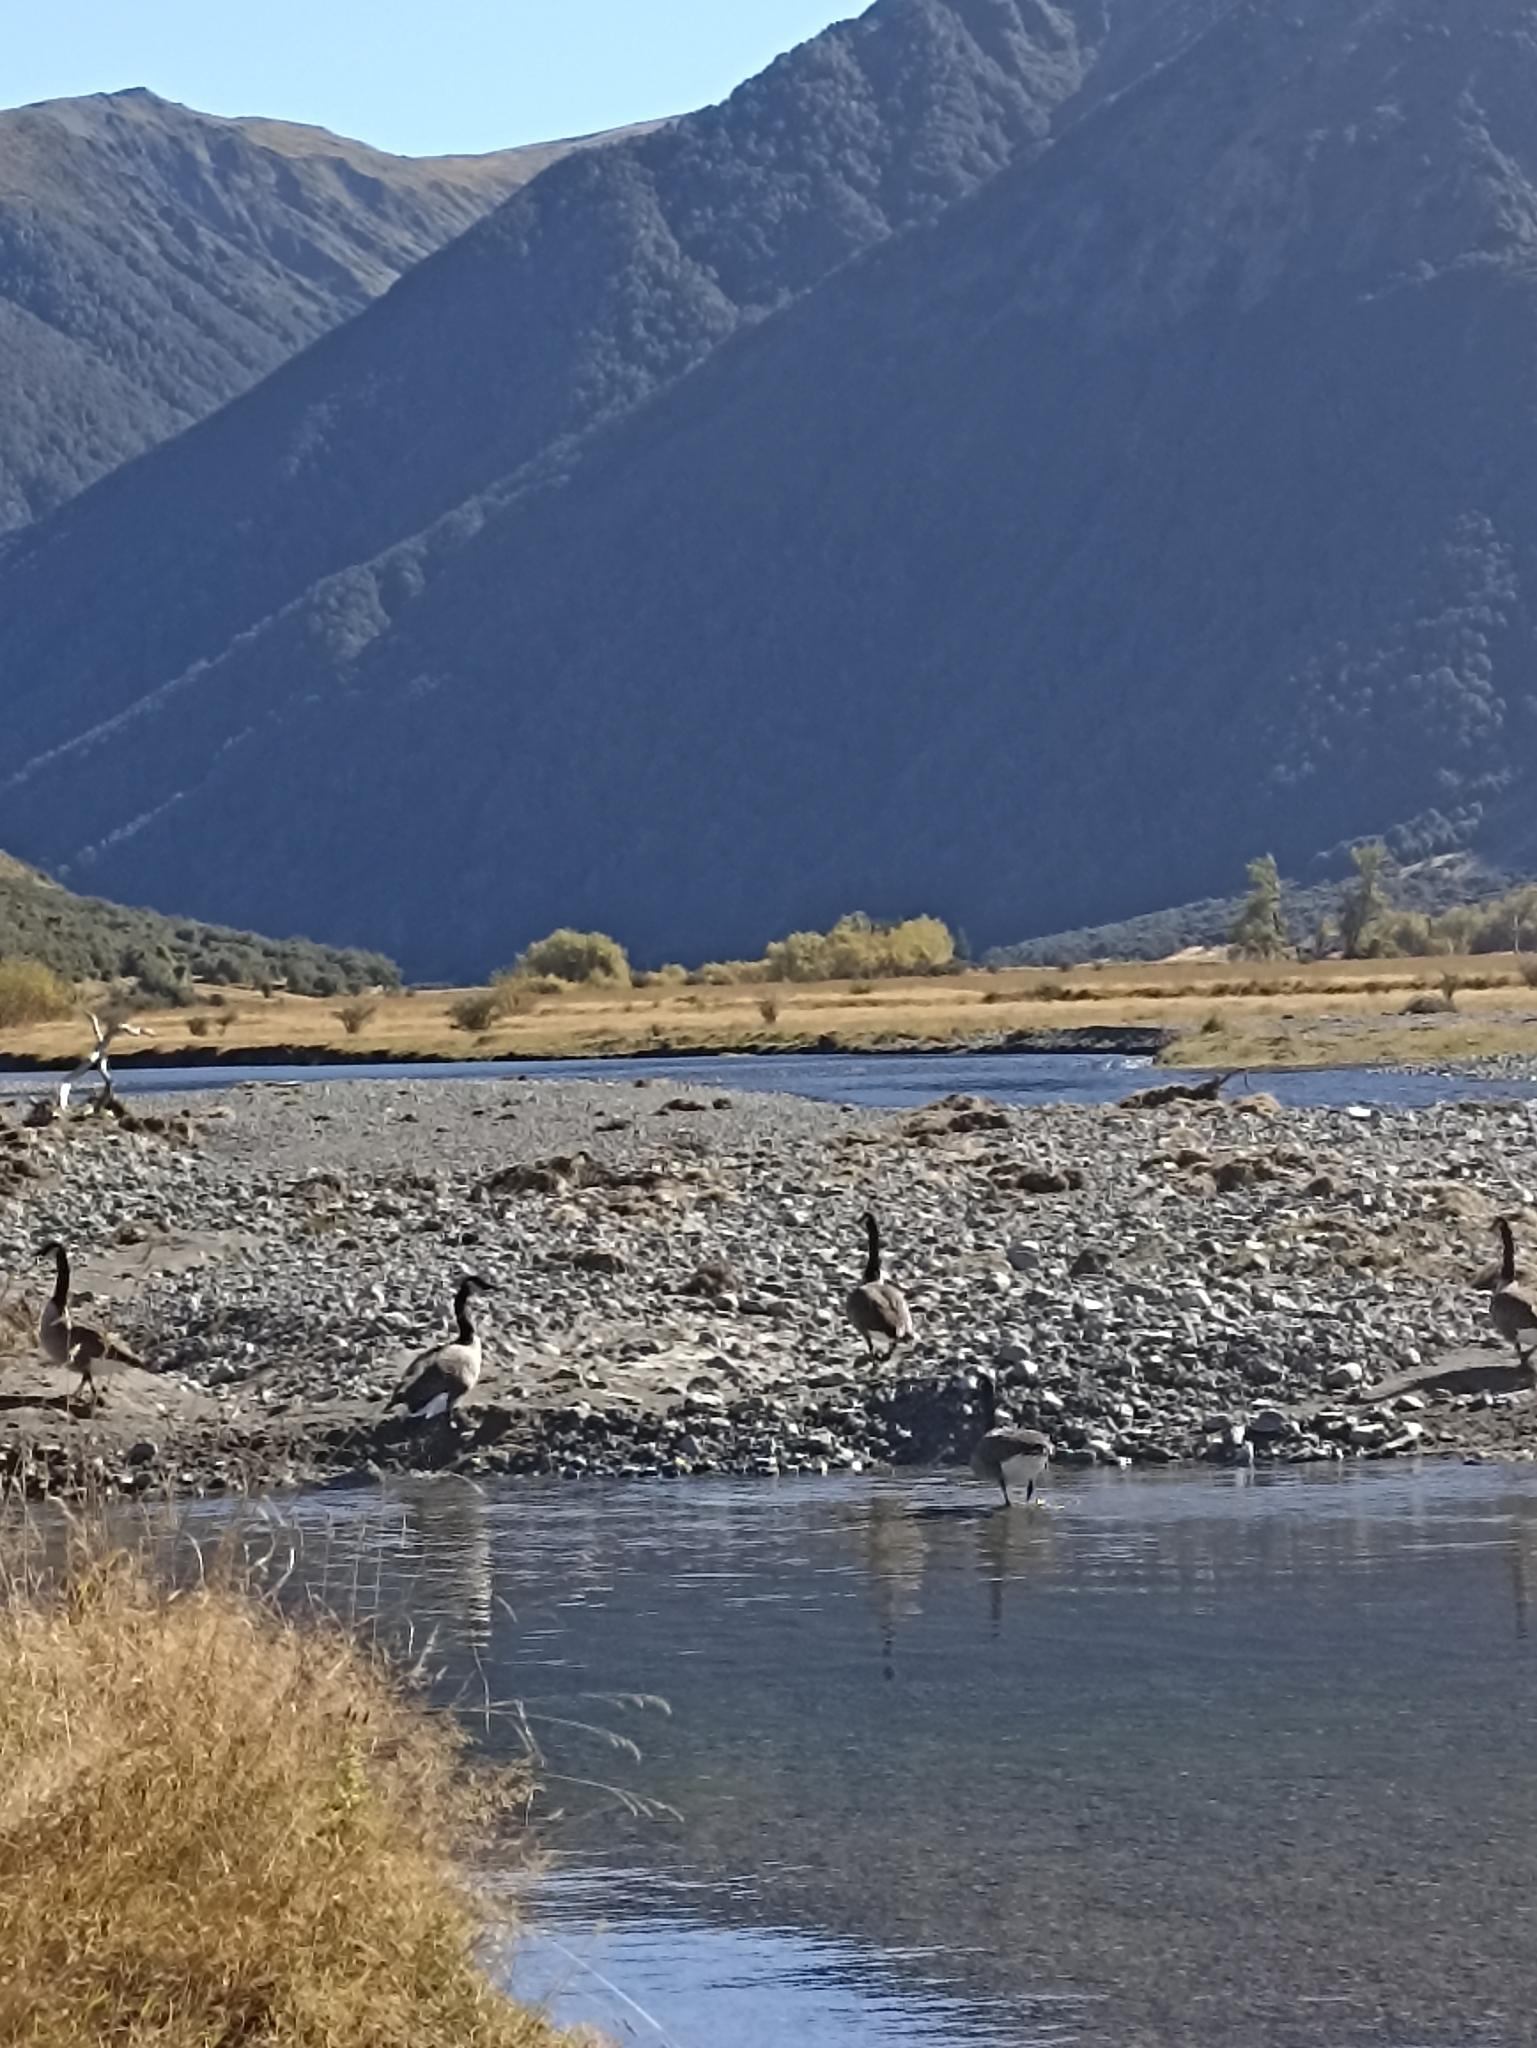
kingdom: Animalia
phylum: Chordata
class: Aves
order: Anseriformes
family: Anatidae
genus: Branta
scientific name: Branta canadensis
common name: Canada goose
